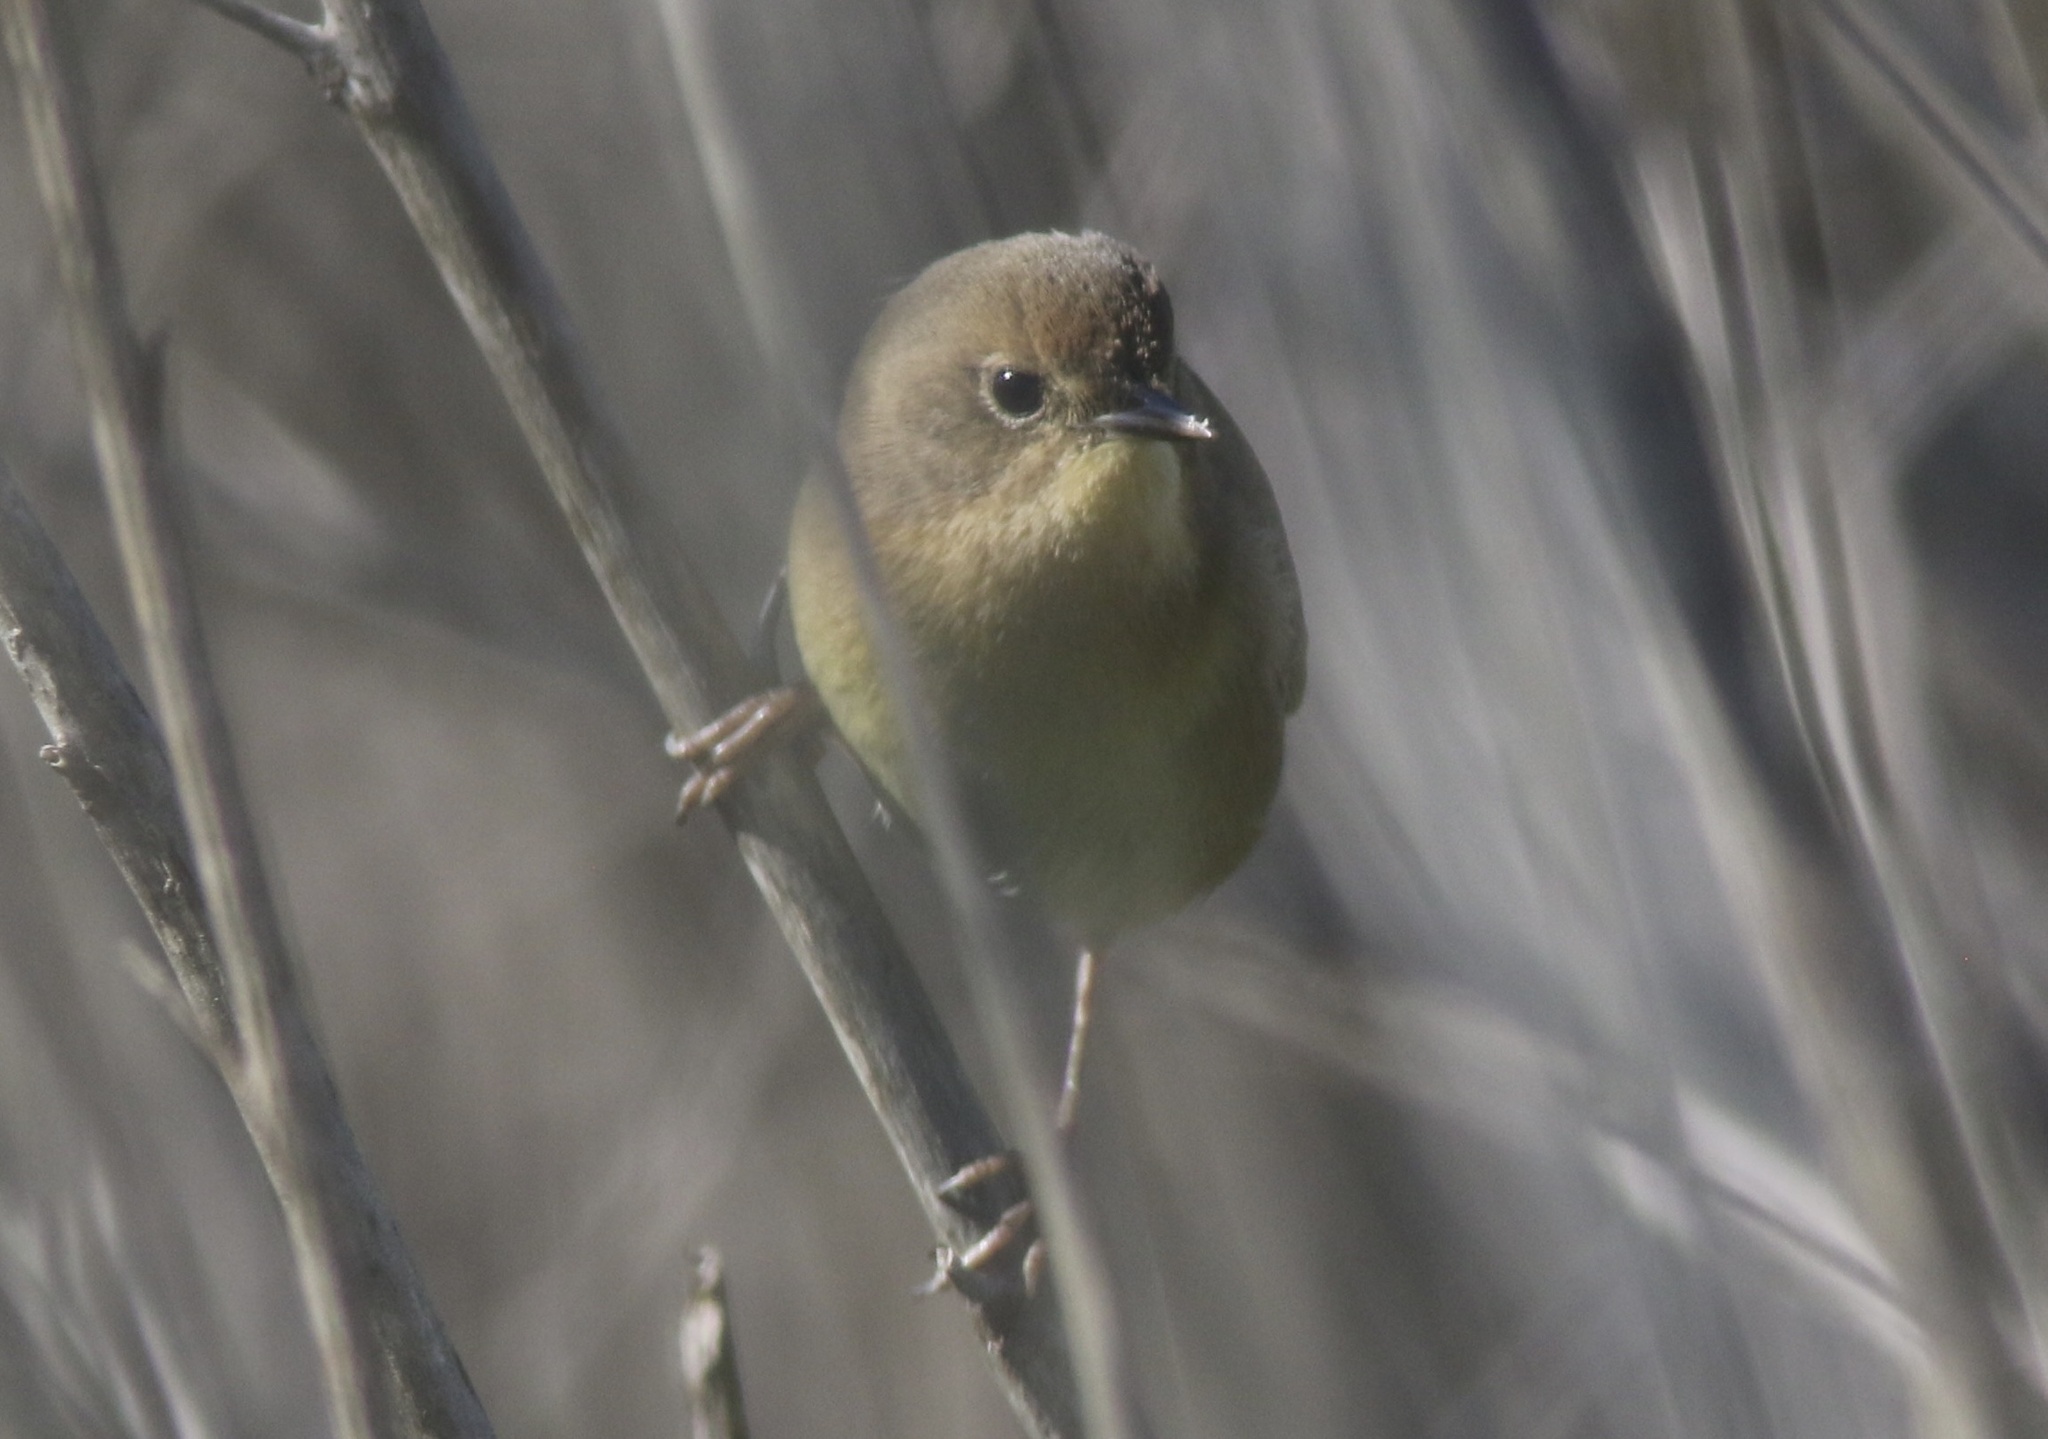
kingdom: Animalia
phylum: Chordata
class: Aves
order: Passeriformes
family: Parulidae
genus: Geothlypis
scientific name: Geothlypis trichas
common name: Common yellowthroat
